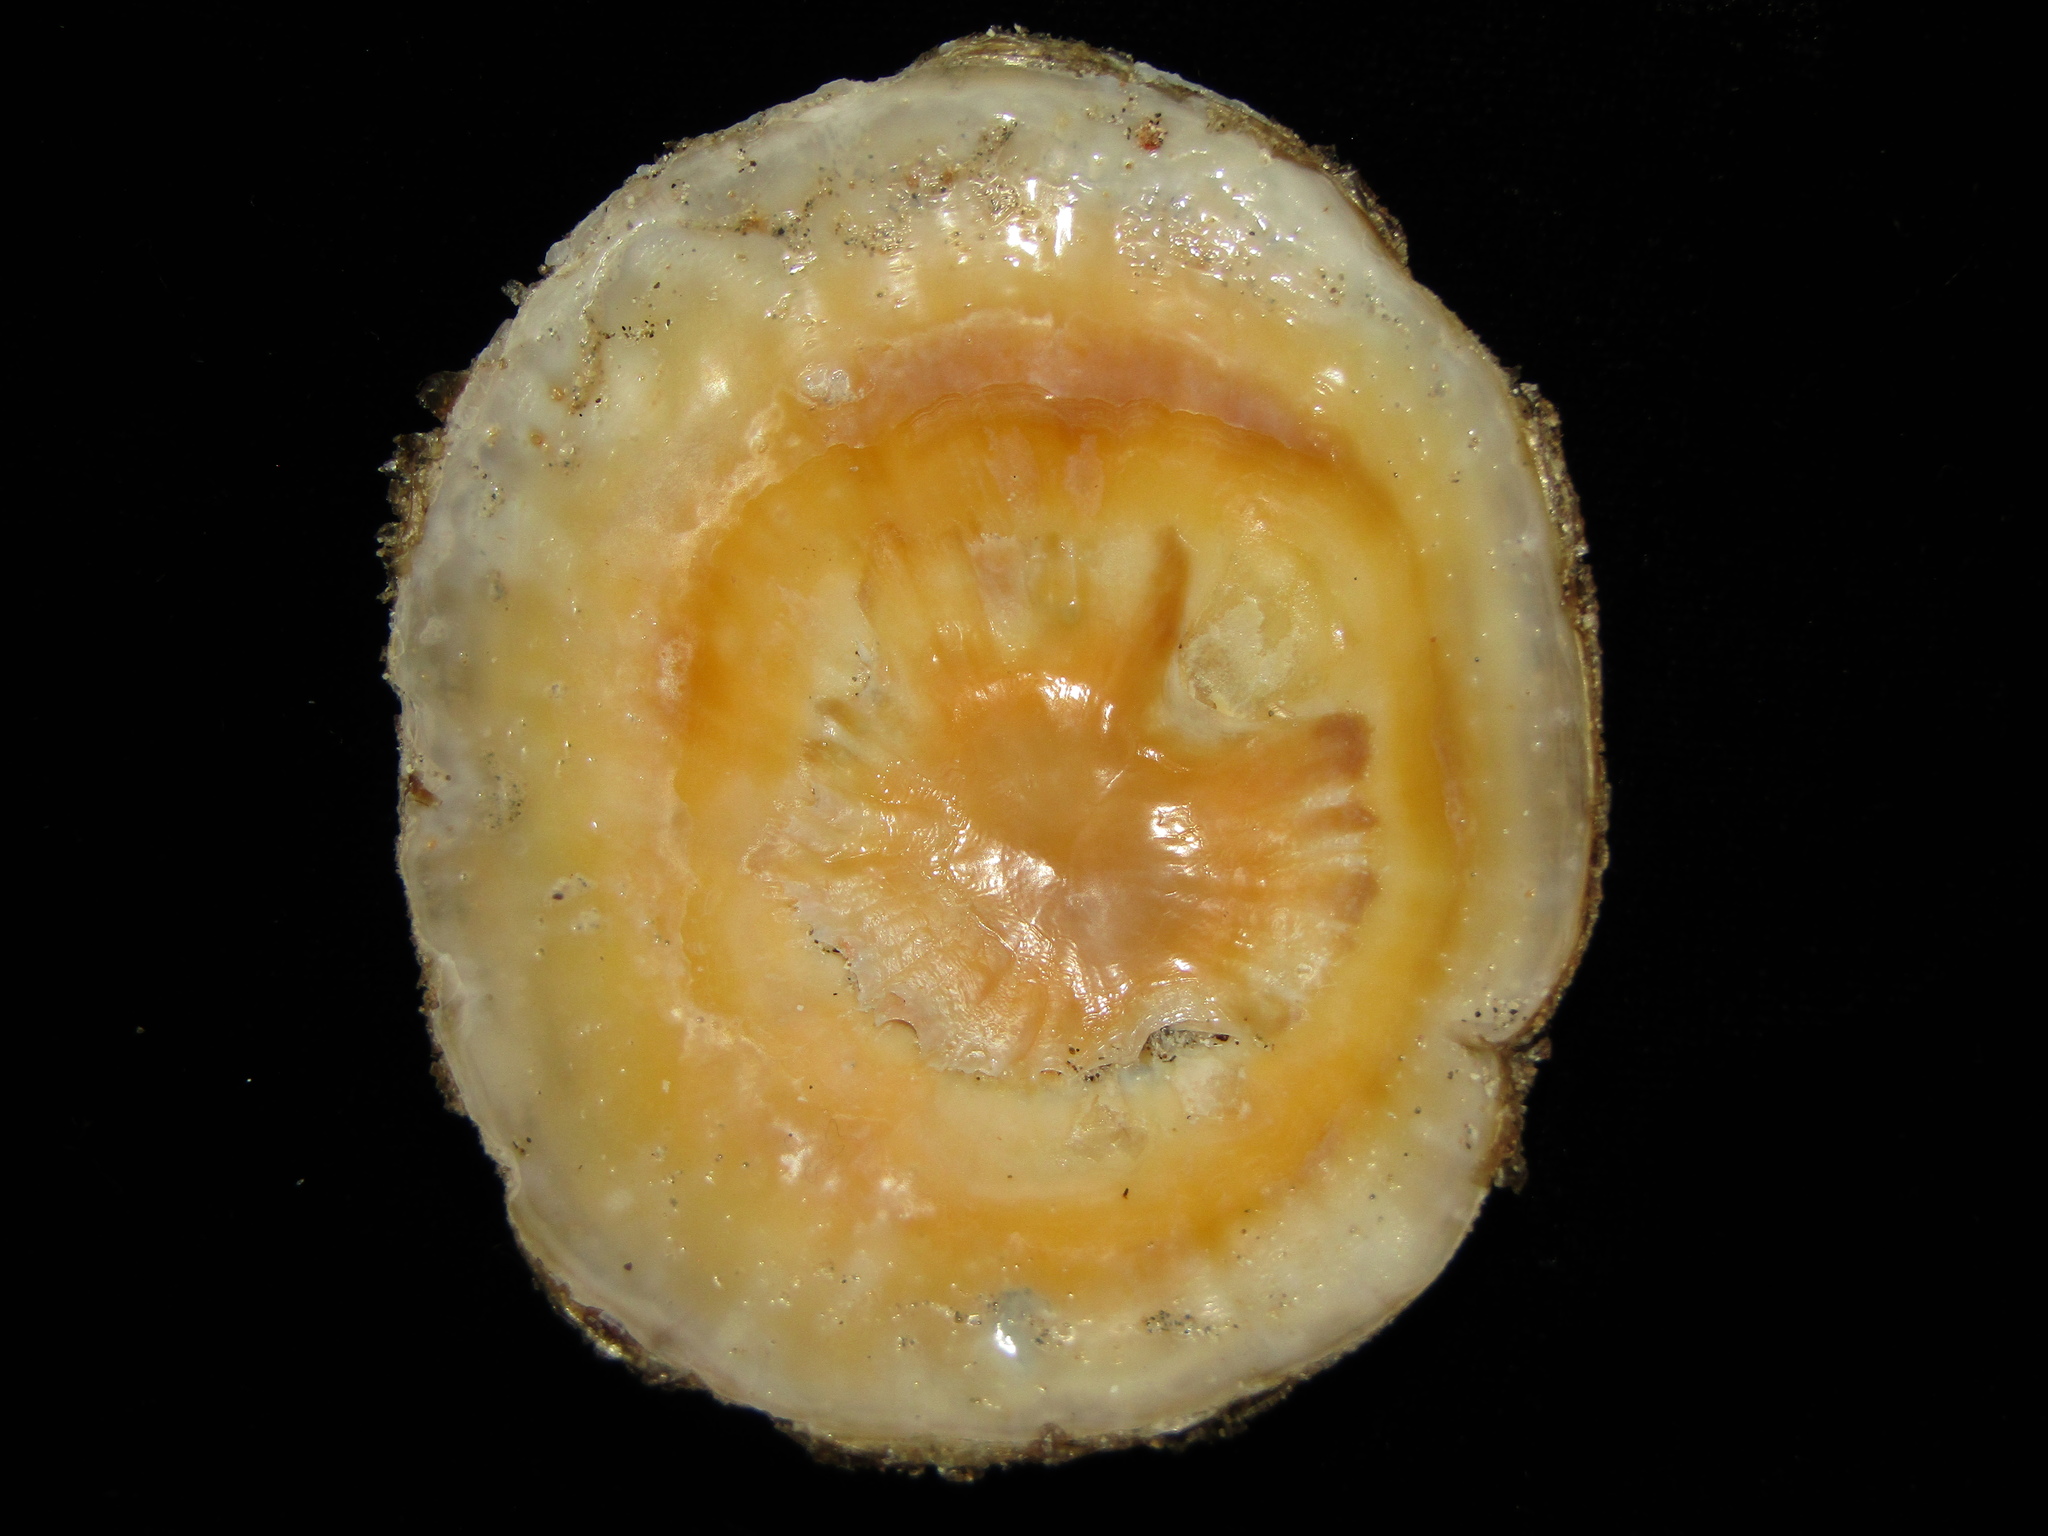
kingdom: Animalia
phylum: Mollusca
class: Gastropoda
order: Umbraculida
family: Umbraculidae
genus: Umbraculum
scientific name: Umbraculum umbraculum
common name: Atlantic umbrella slug
